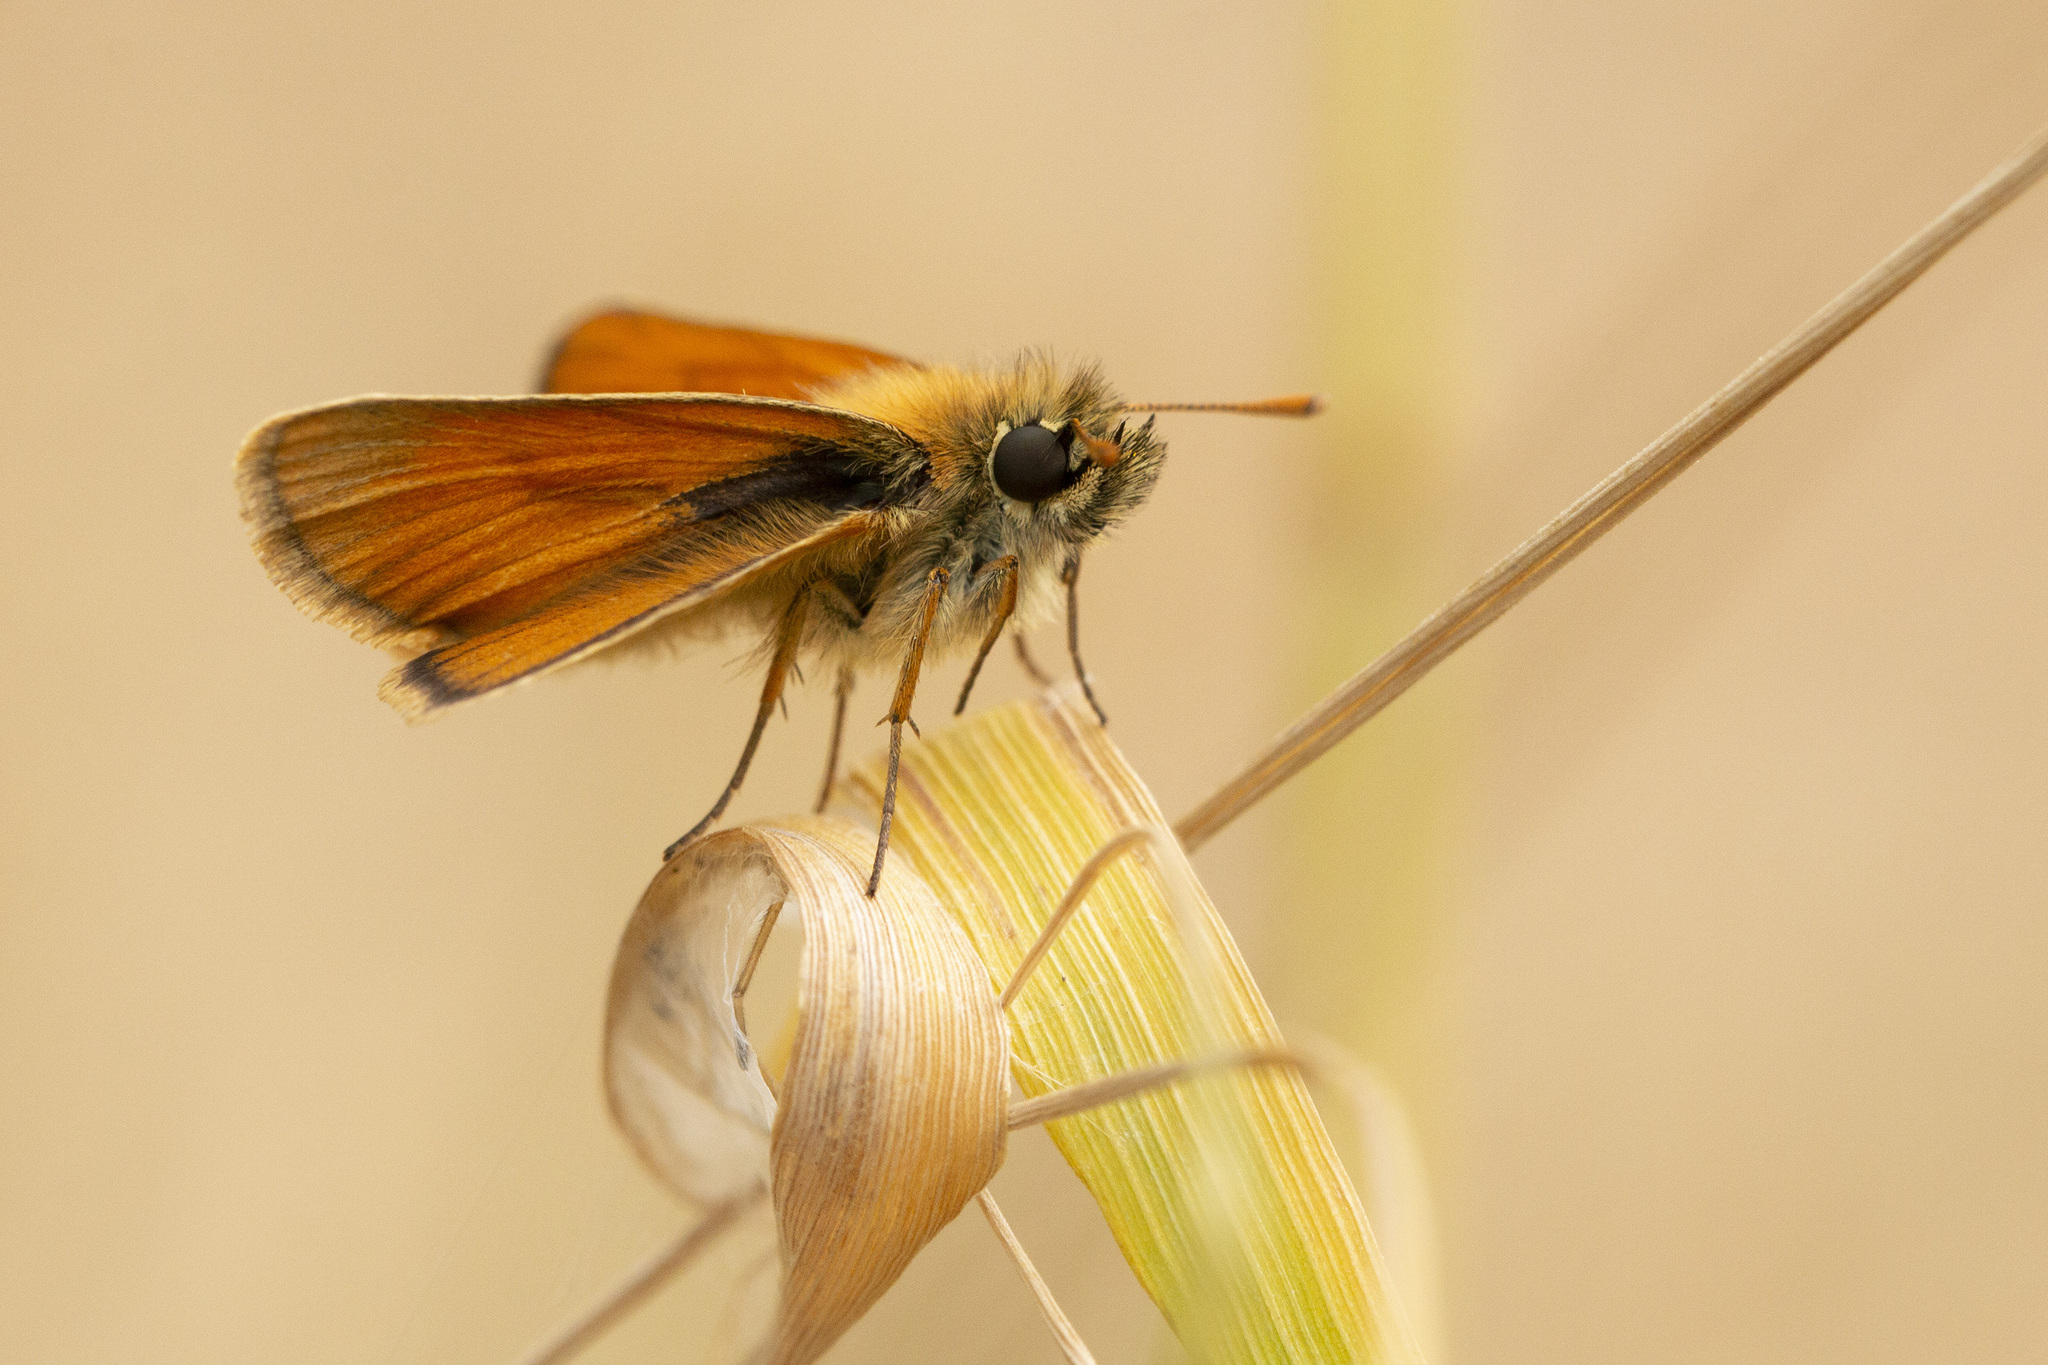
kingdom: Animalia
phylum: Arthropoda
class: Insecta
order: Lepidoptera
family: Hesperiidae
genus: Thymelicus
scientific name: Thymelicus sylvestris
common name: Small skipper
